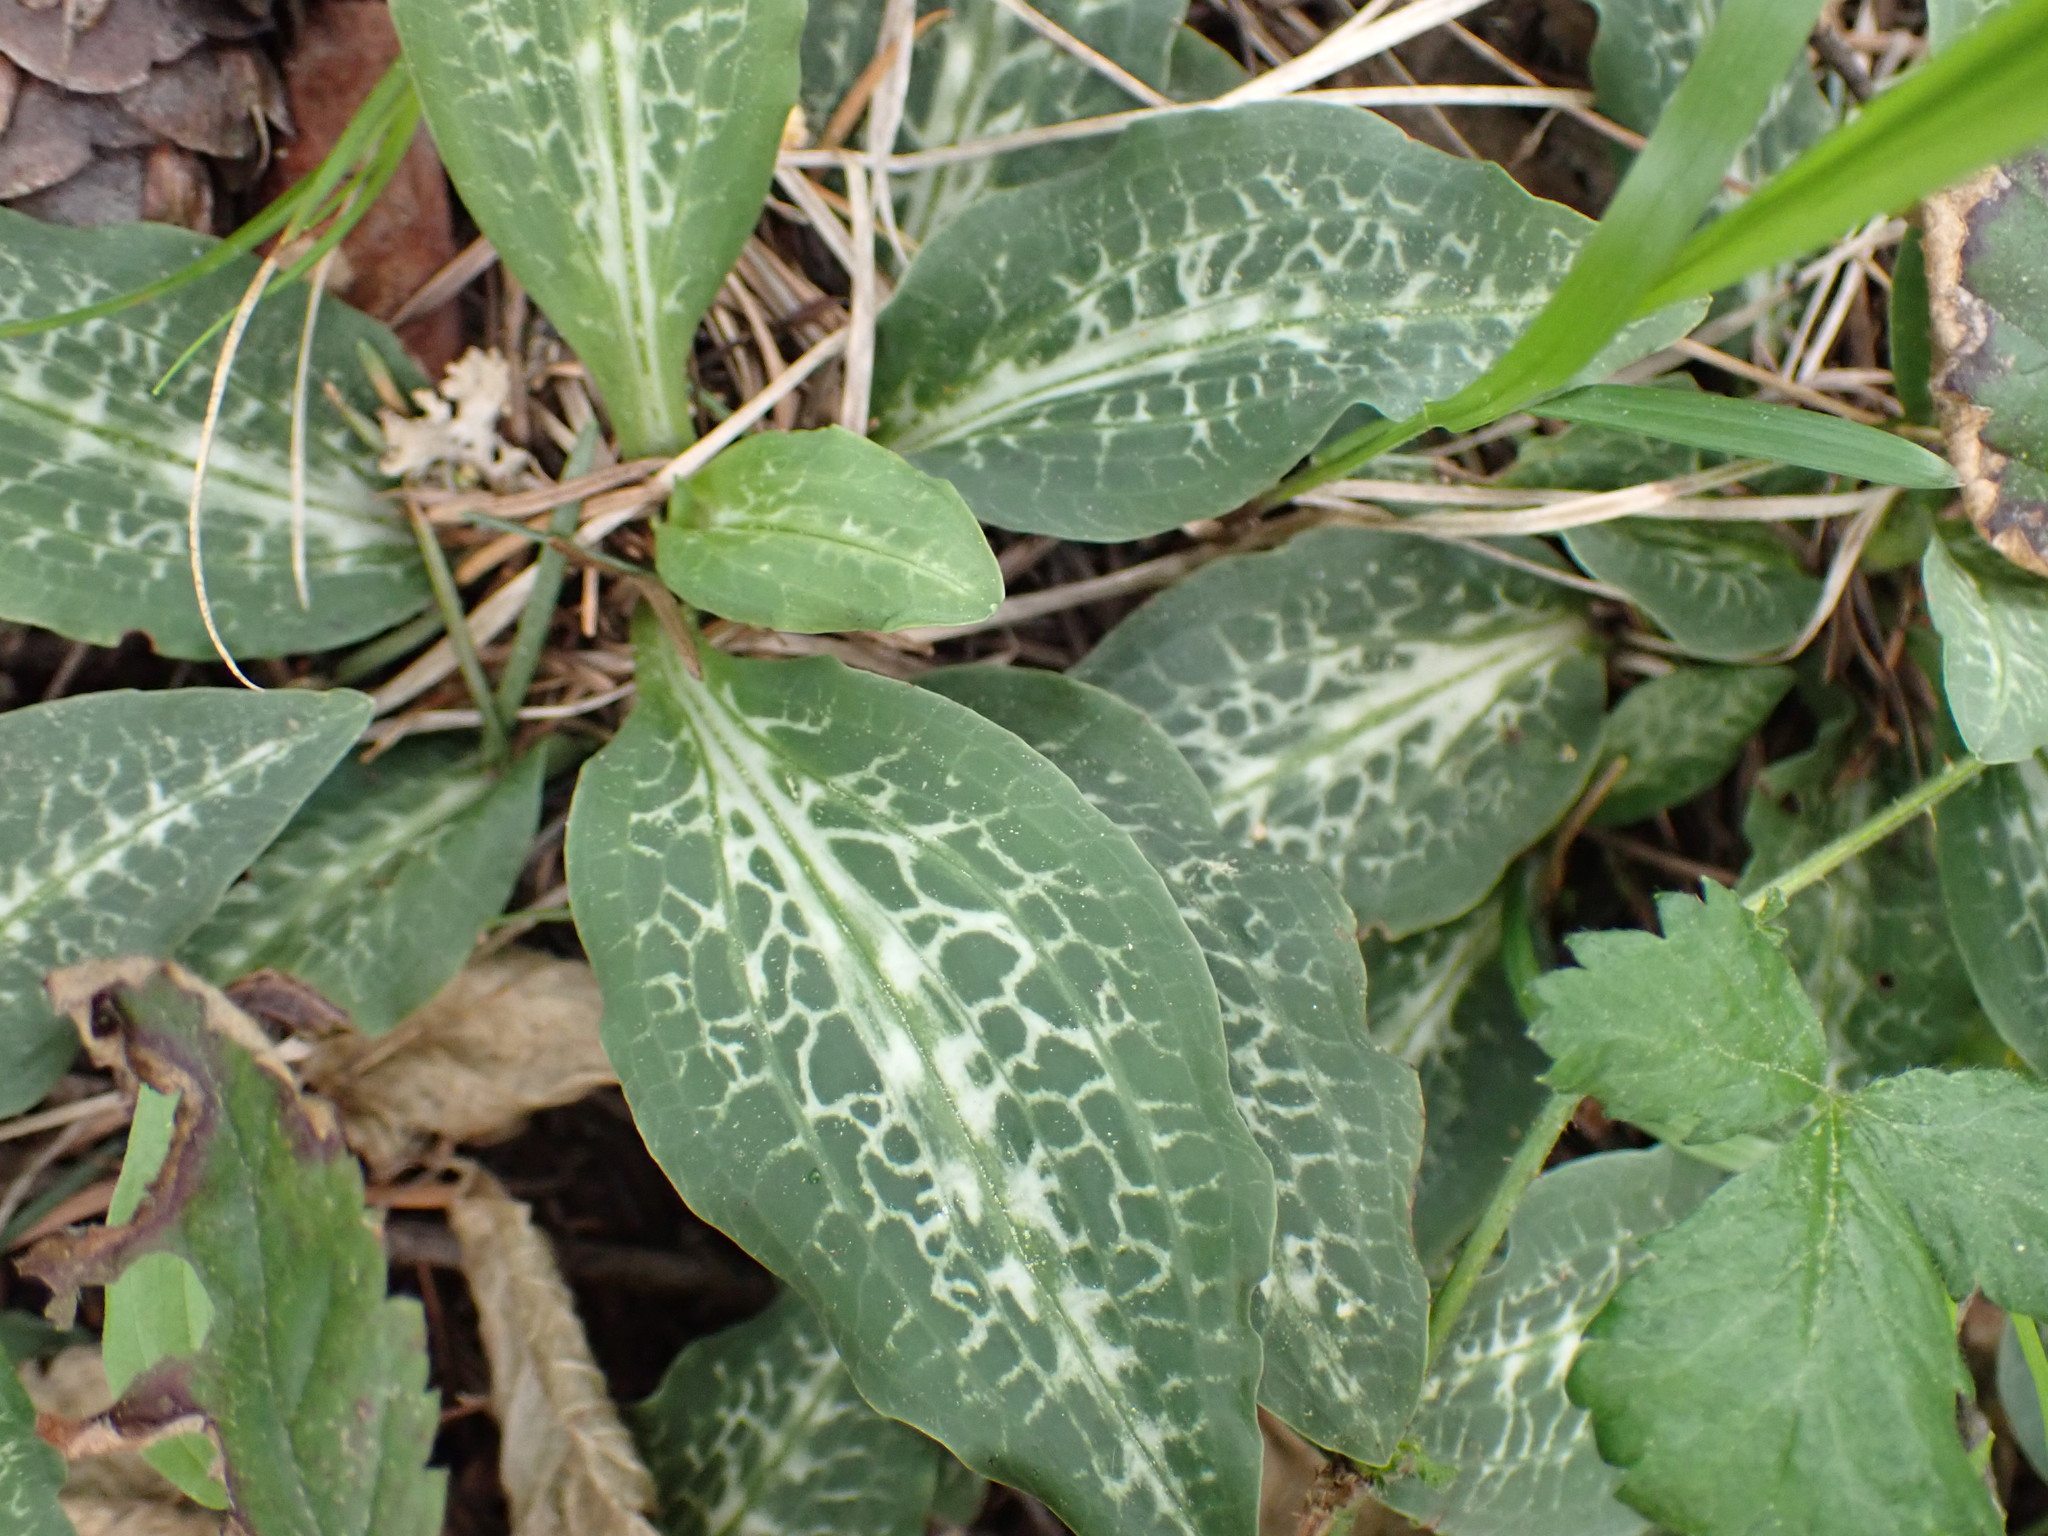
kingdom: Plantae
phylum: Tracheophyta
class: Liliopsida
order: Asparagales
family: Orchidaceae
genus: Goodyera
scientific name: Goodyera oblongifolia
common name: Giant rattlesnake-plantain
